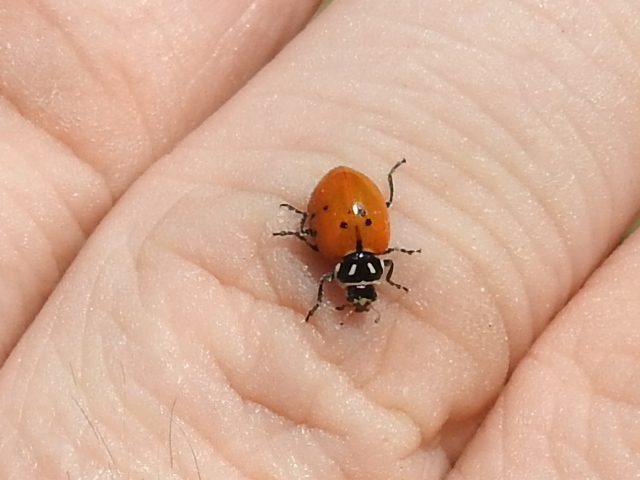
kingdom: Animalia
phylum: Arthropoda
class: Insecta
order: Coleoptera
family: Coccinellidae
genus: Hippodamia
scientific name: Hippodamia convergens
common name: Convergent lady beetle
